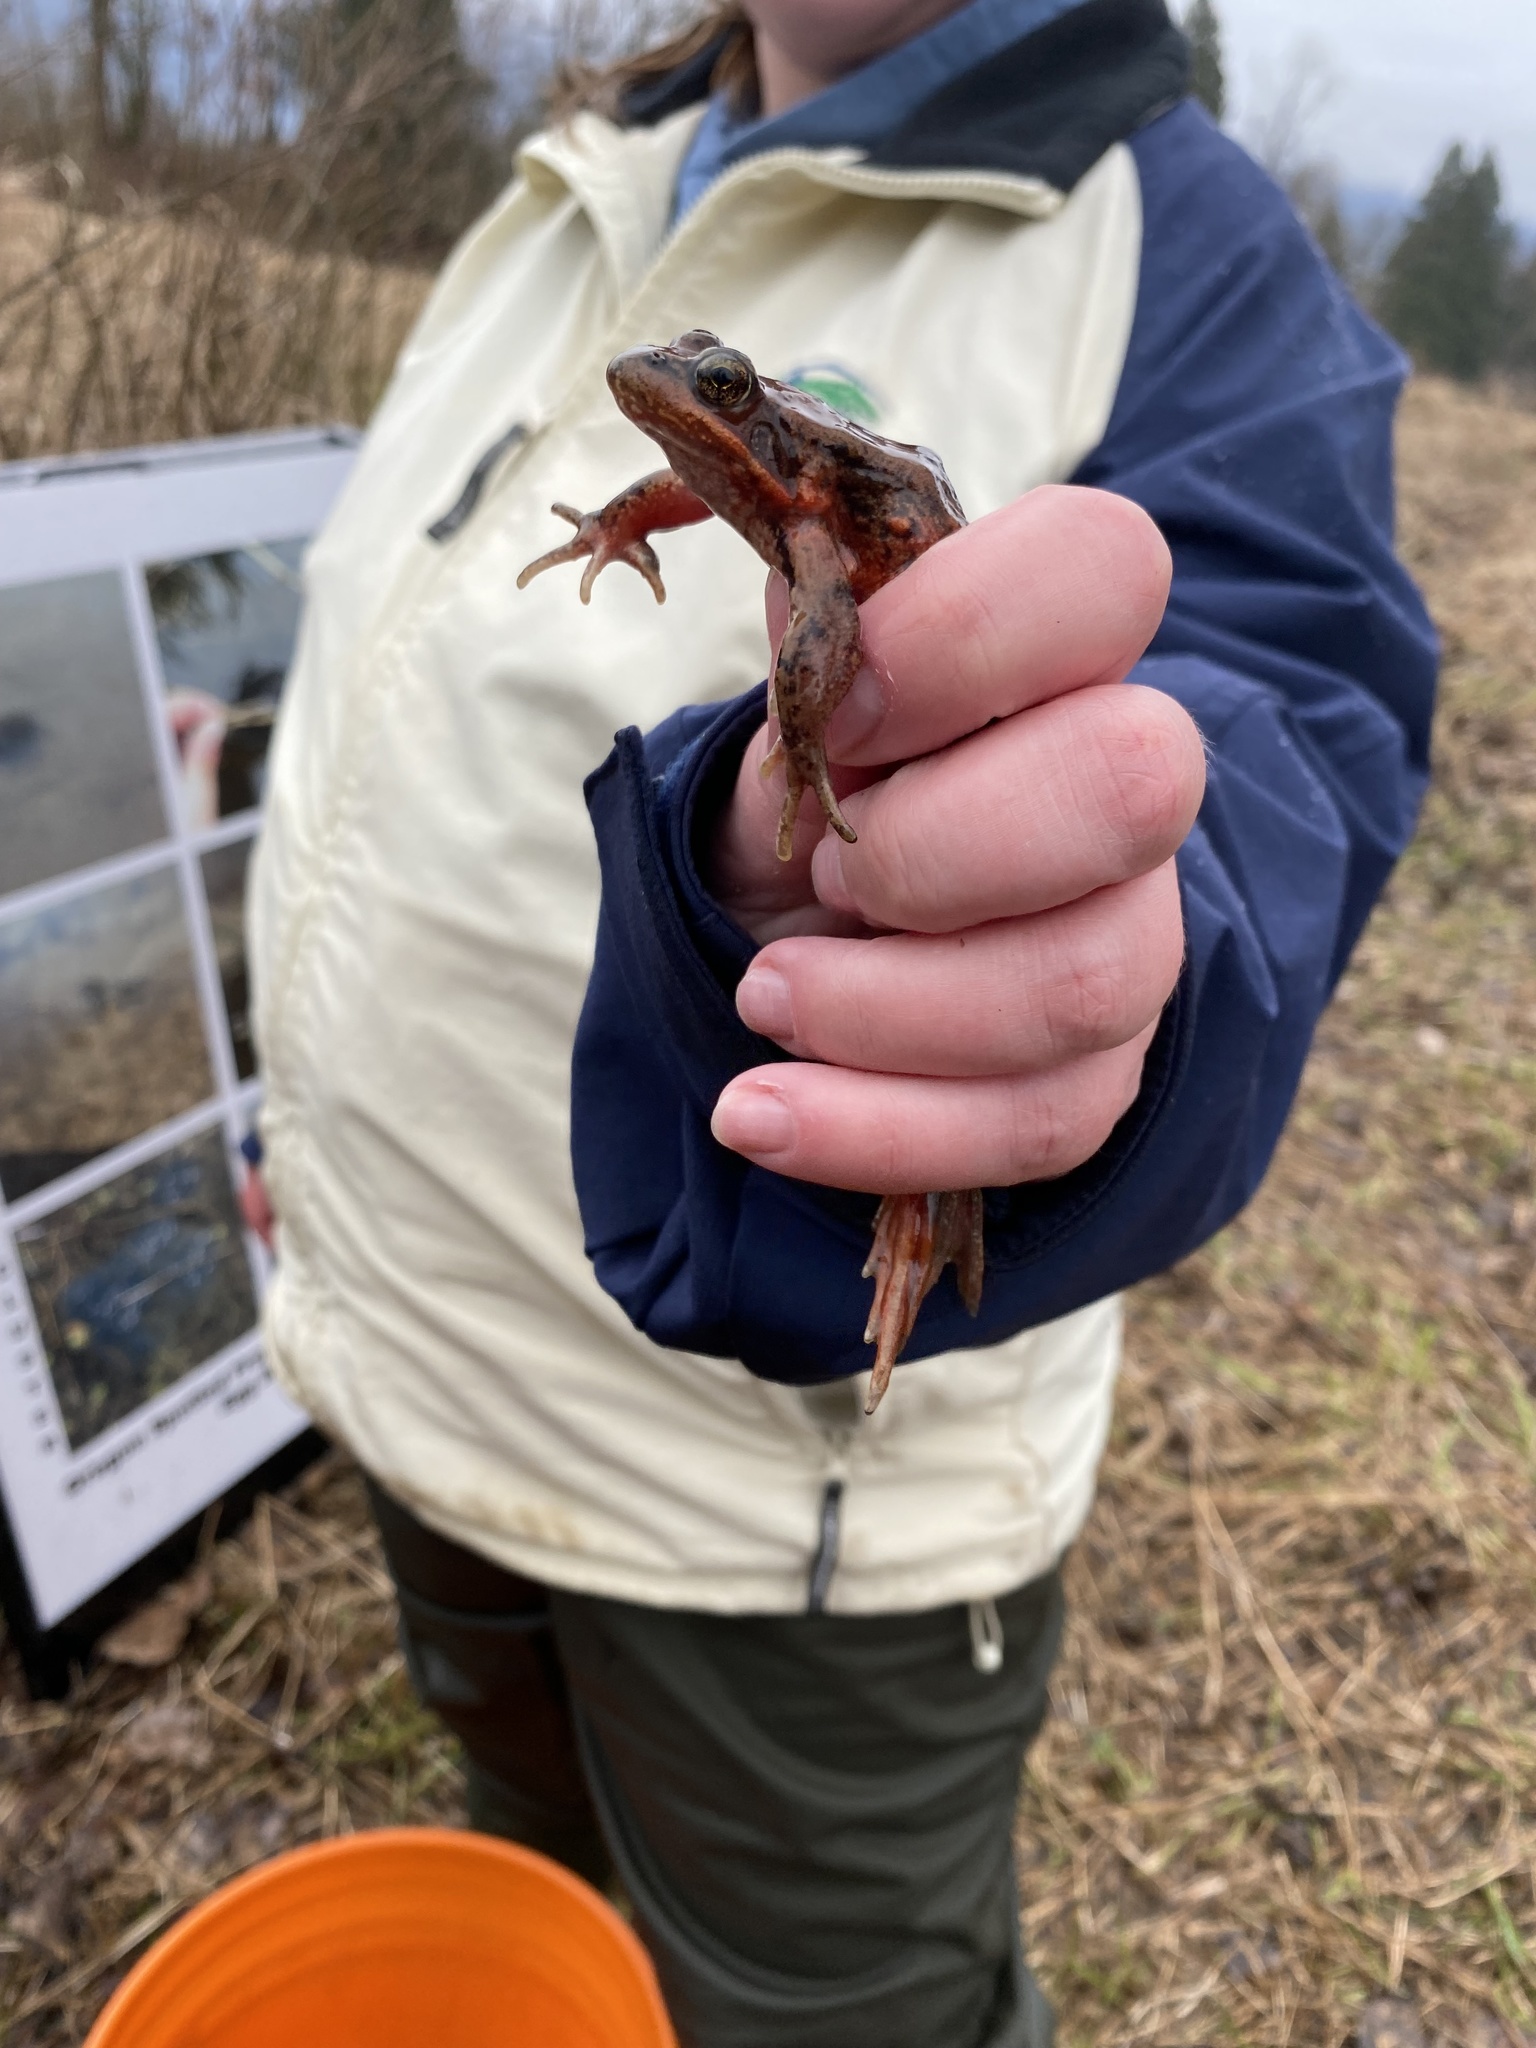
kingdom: Animalia
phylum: Chordata
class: Amphibia
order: Anura
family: Ranidae
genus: Rana
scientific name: Rana aurora
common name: Red-legged frog
